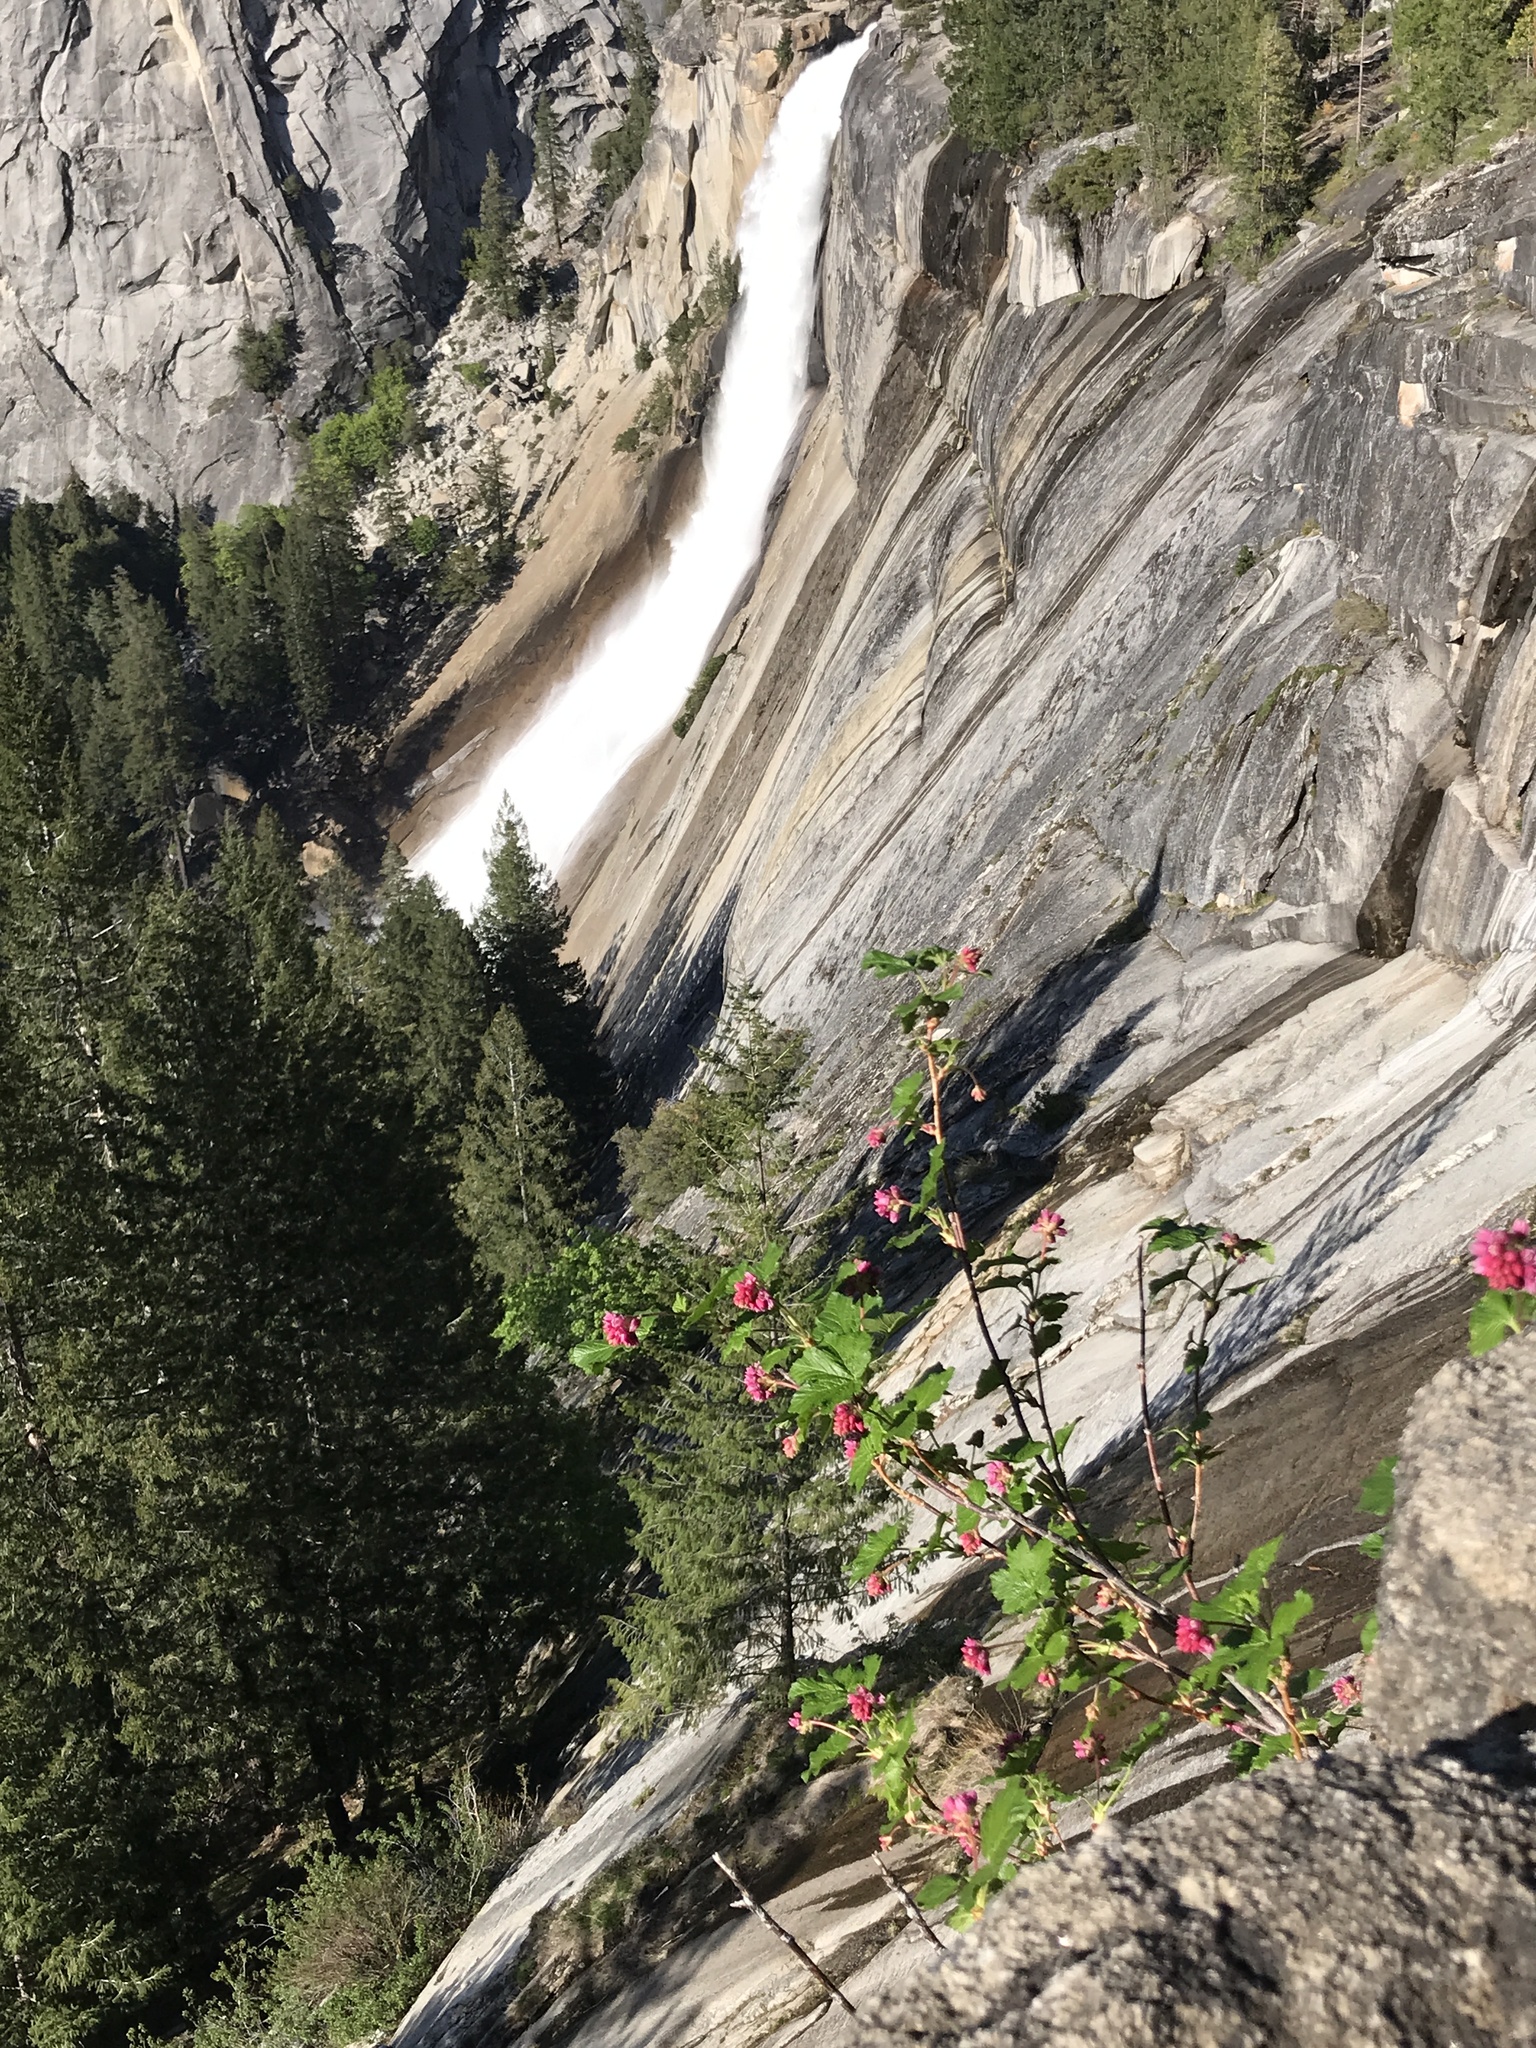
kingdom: Plantae
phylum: Tracheophyta
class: Magnoliopsida
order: Saxifragales
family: Grossulariaceae
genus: Ribes
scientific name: Ribes nevadense
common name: Mountain pink currant
